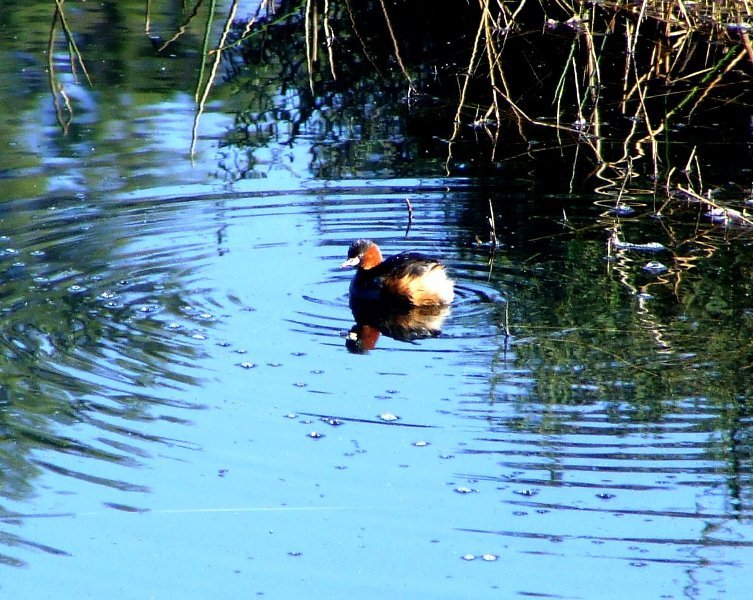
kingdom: Animalia
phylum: Chordata
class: Aves
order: Podicipediformes
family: Podicipedidae
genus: Tachybaptus
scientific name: Tachybaptus ruficollis
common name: Little grebe
